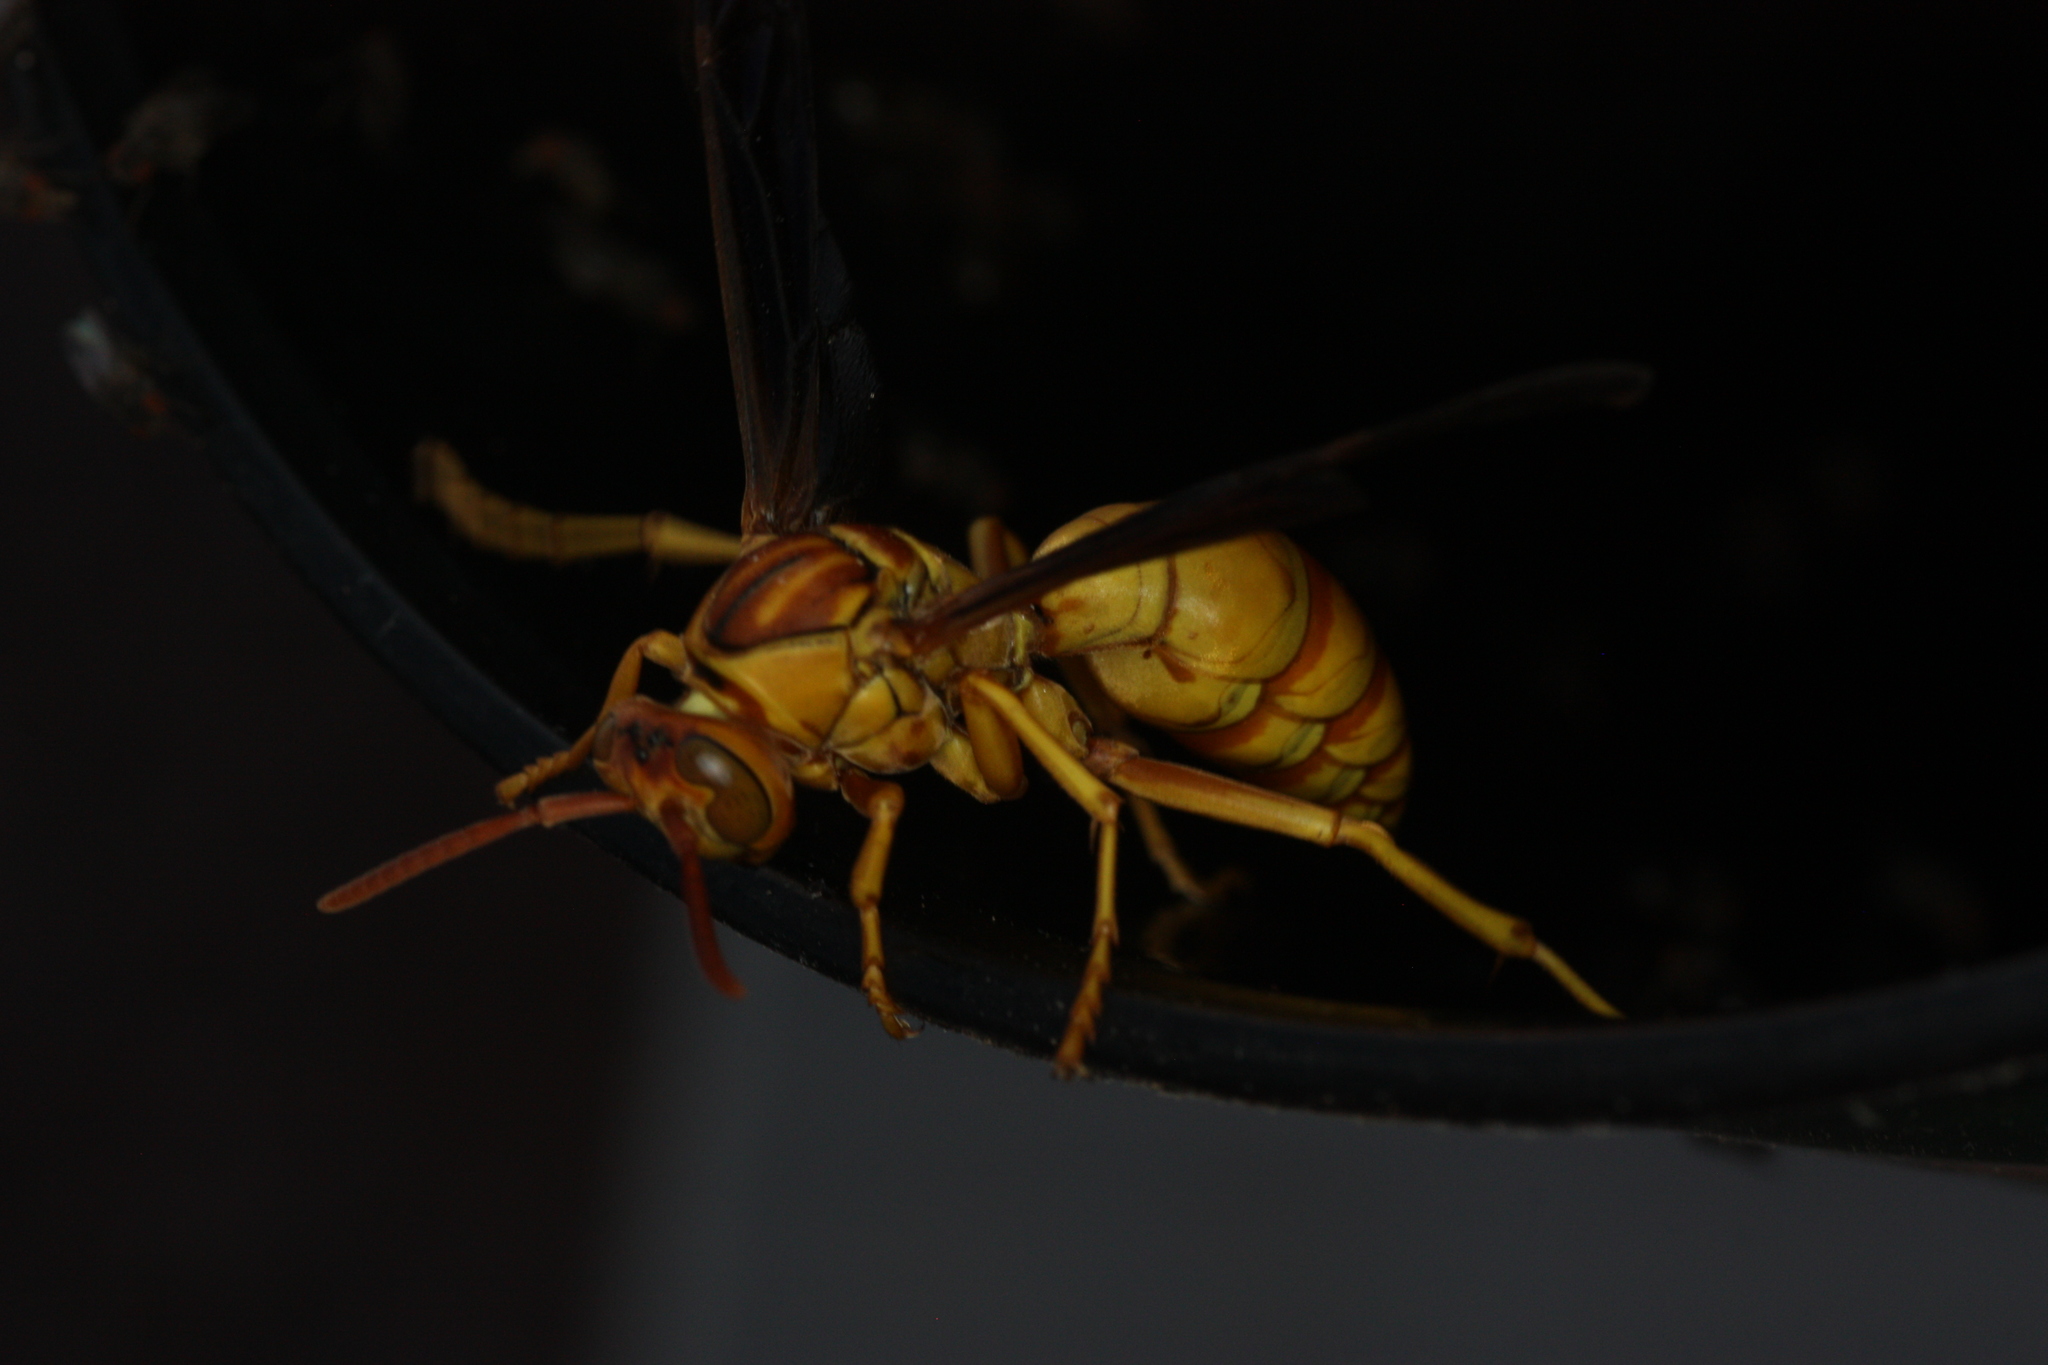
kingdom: Animalia
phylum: Arthropoda
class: Insecta
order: Hymenoptera
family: Eumenidae
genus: Polistes
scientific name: Polistes flavus
